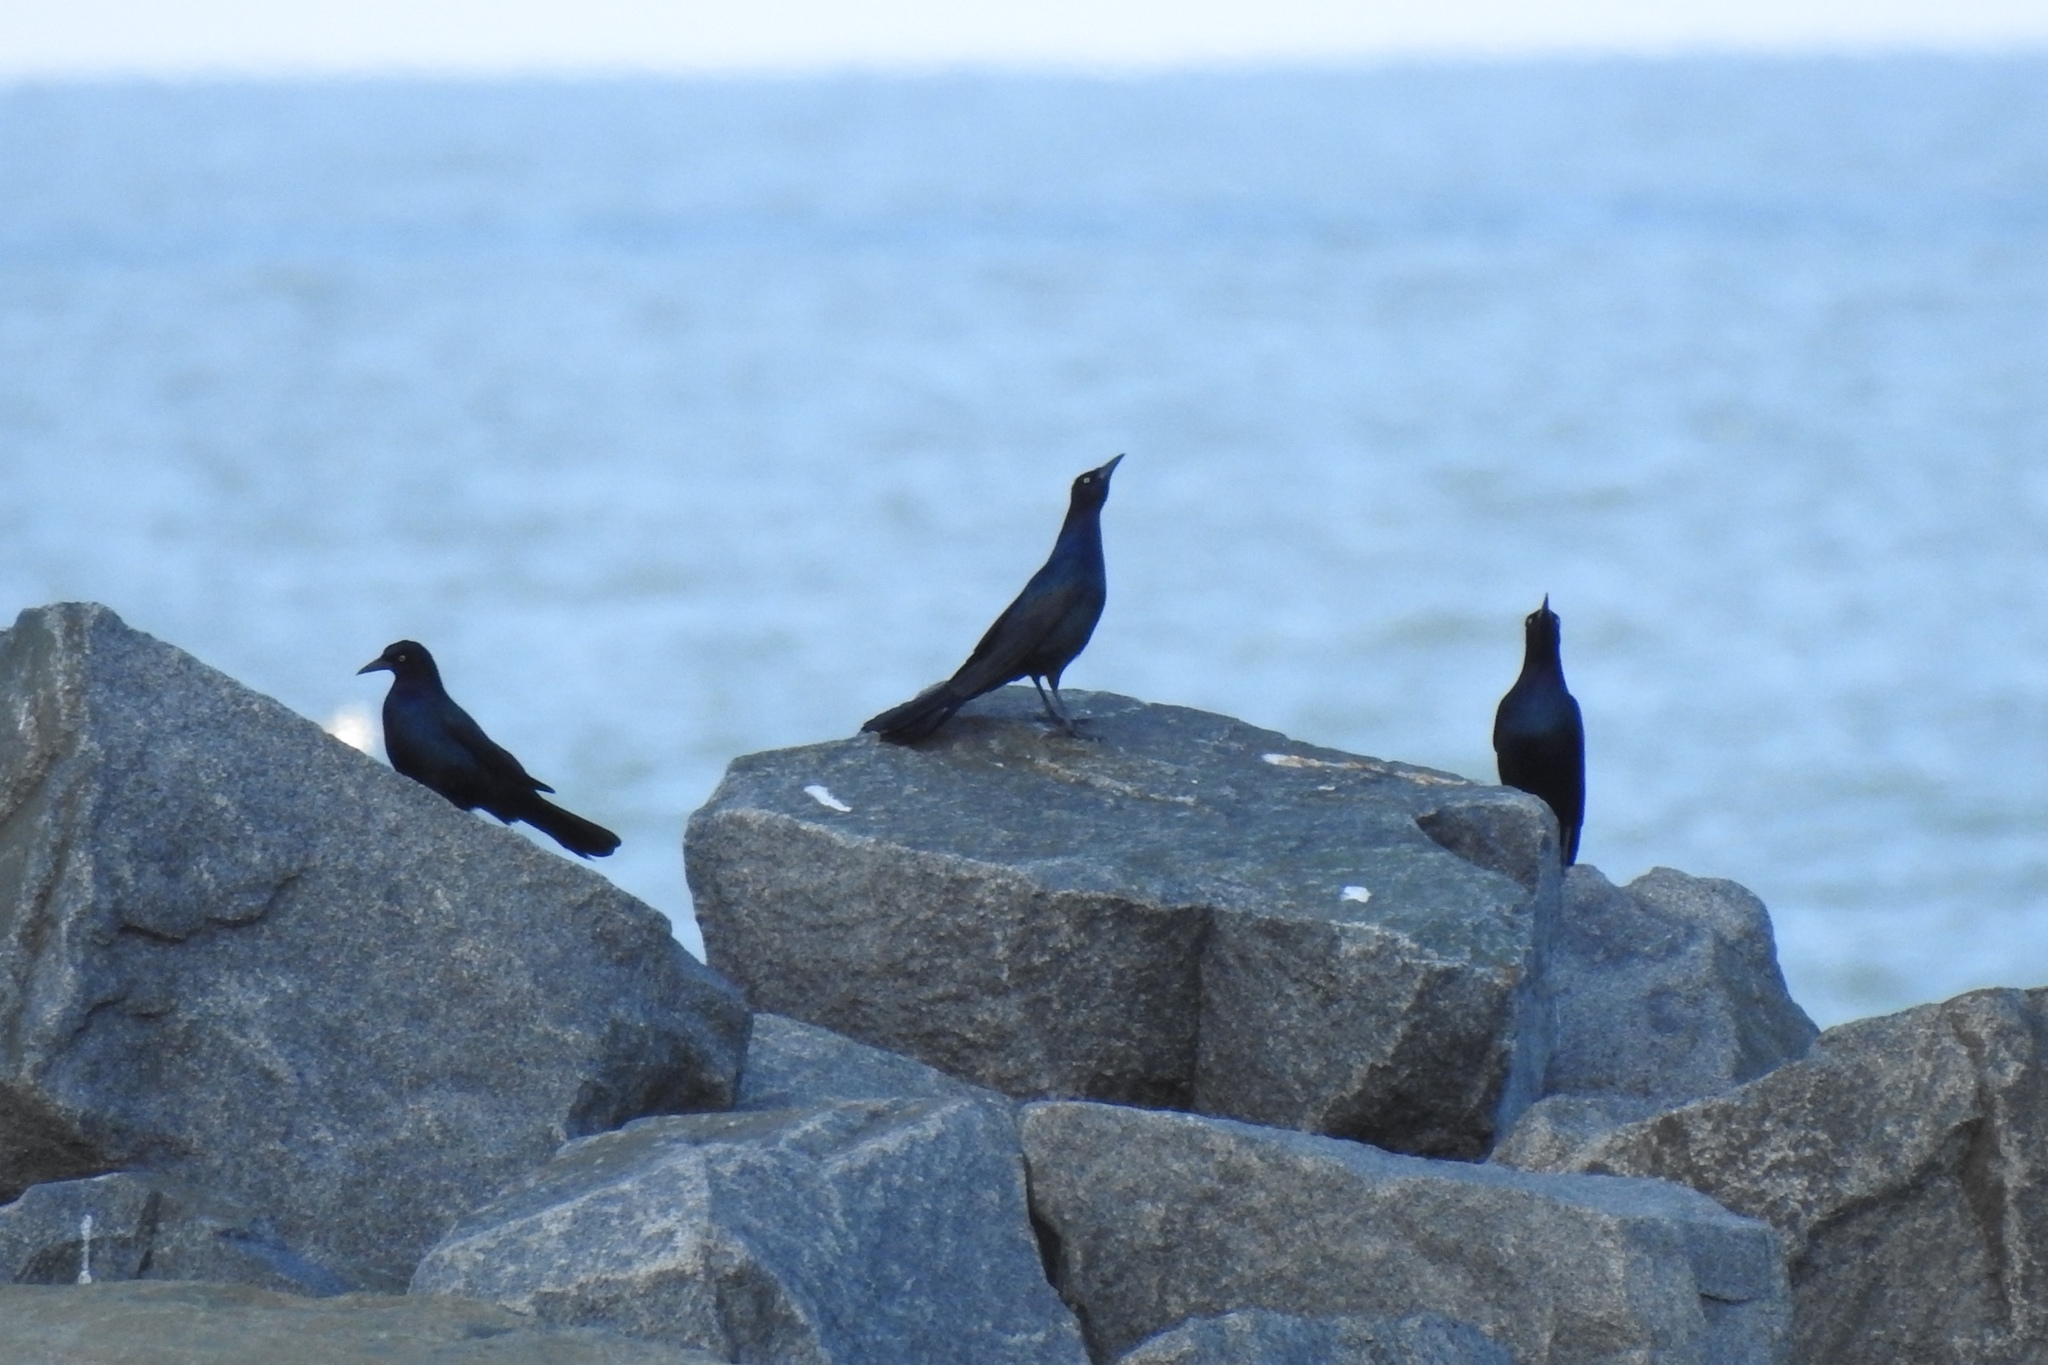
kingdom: Animalia
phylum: Chordata
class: Aves
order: Passeriformes
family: Icteridae
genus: Quiscalus
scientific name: Quiscalus major
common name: Boat-tailed grackle
